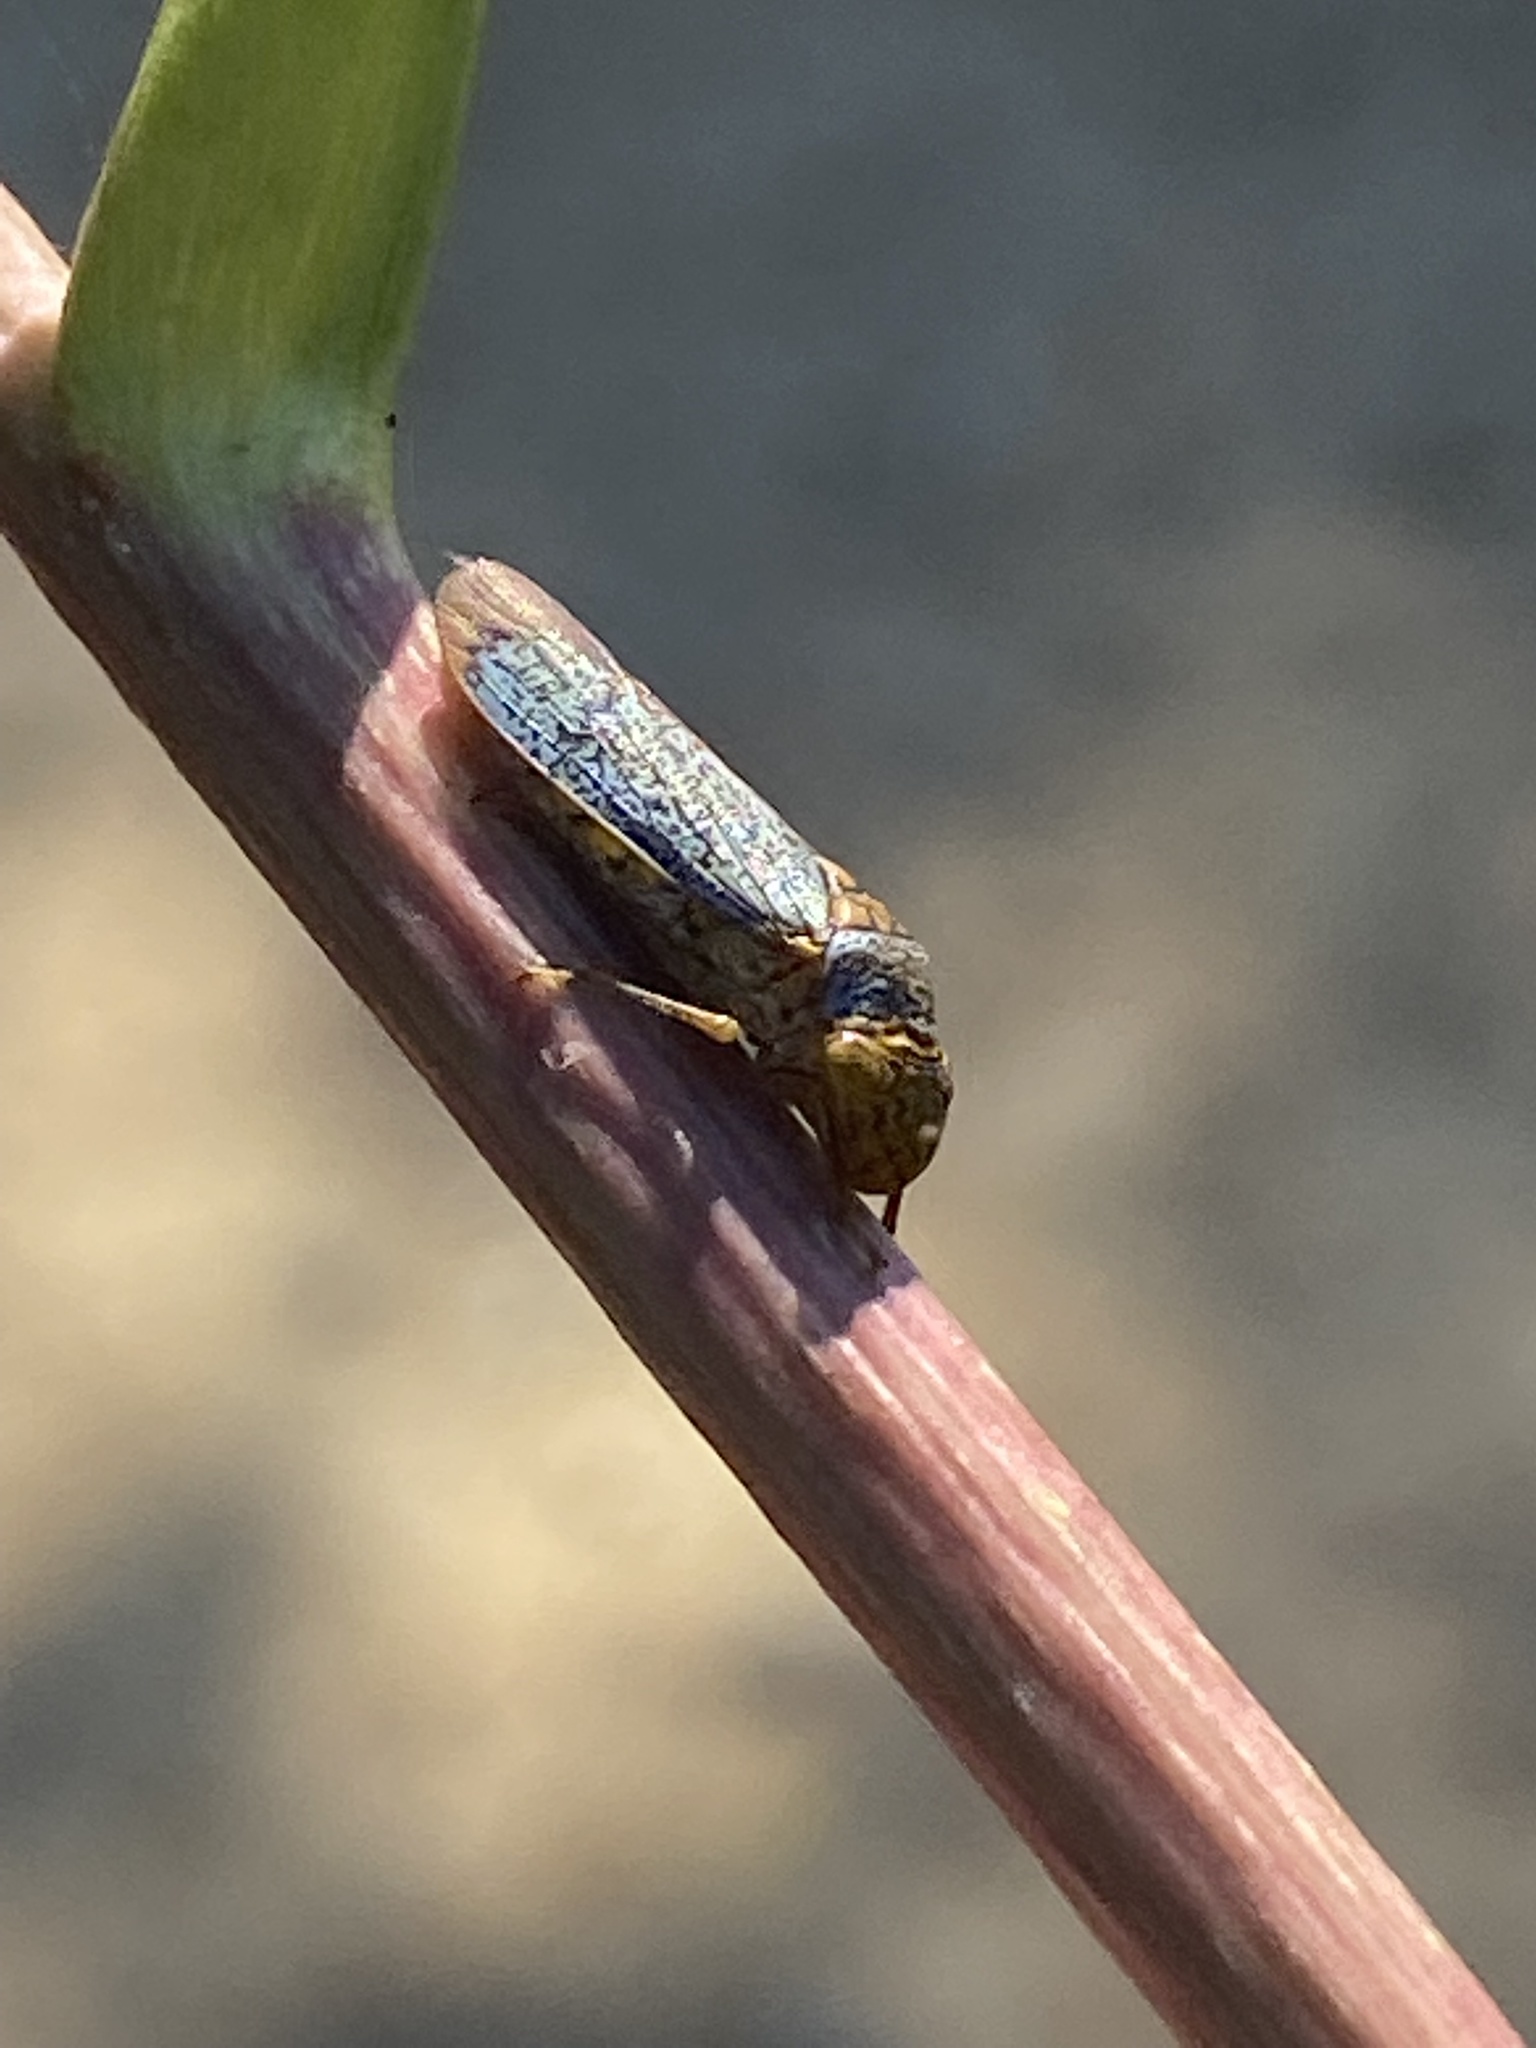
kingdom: Animalia
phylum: Arthropoda
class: Insecta
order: Hemiptera
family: Cicadellidae
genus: Oncometopia
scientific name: Oncometopia orbona
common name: Broad-headed sharpshooter
